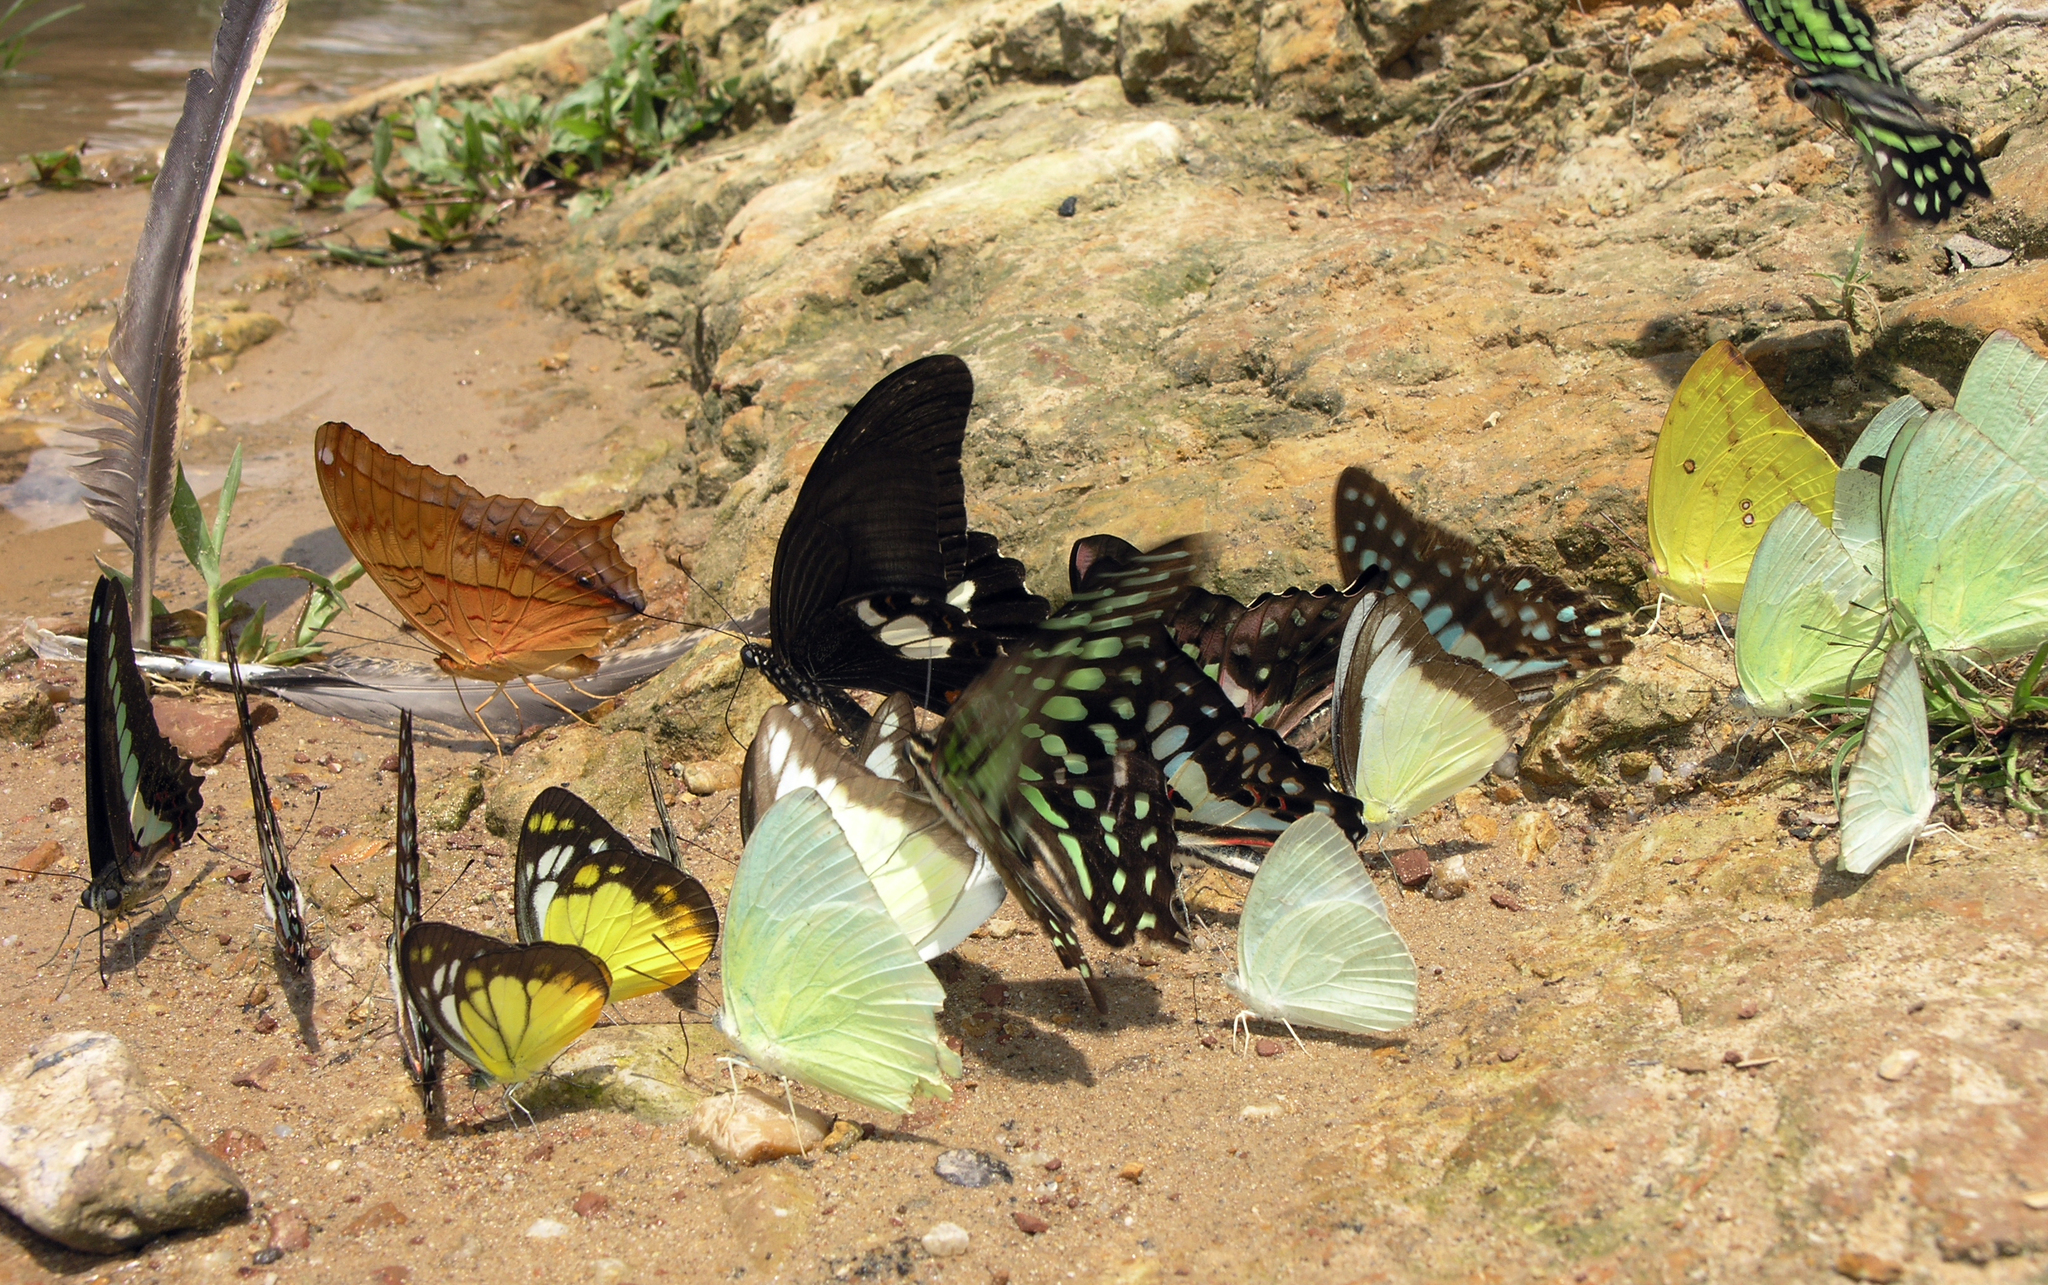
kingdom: Animalia
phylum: Arthropoda
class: Insecta
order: Lepidoptera
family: Pieridae
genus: Appias
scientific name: Appias lyncida
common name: Chocolate albatross
